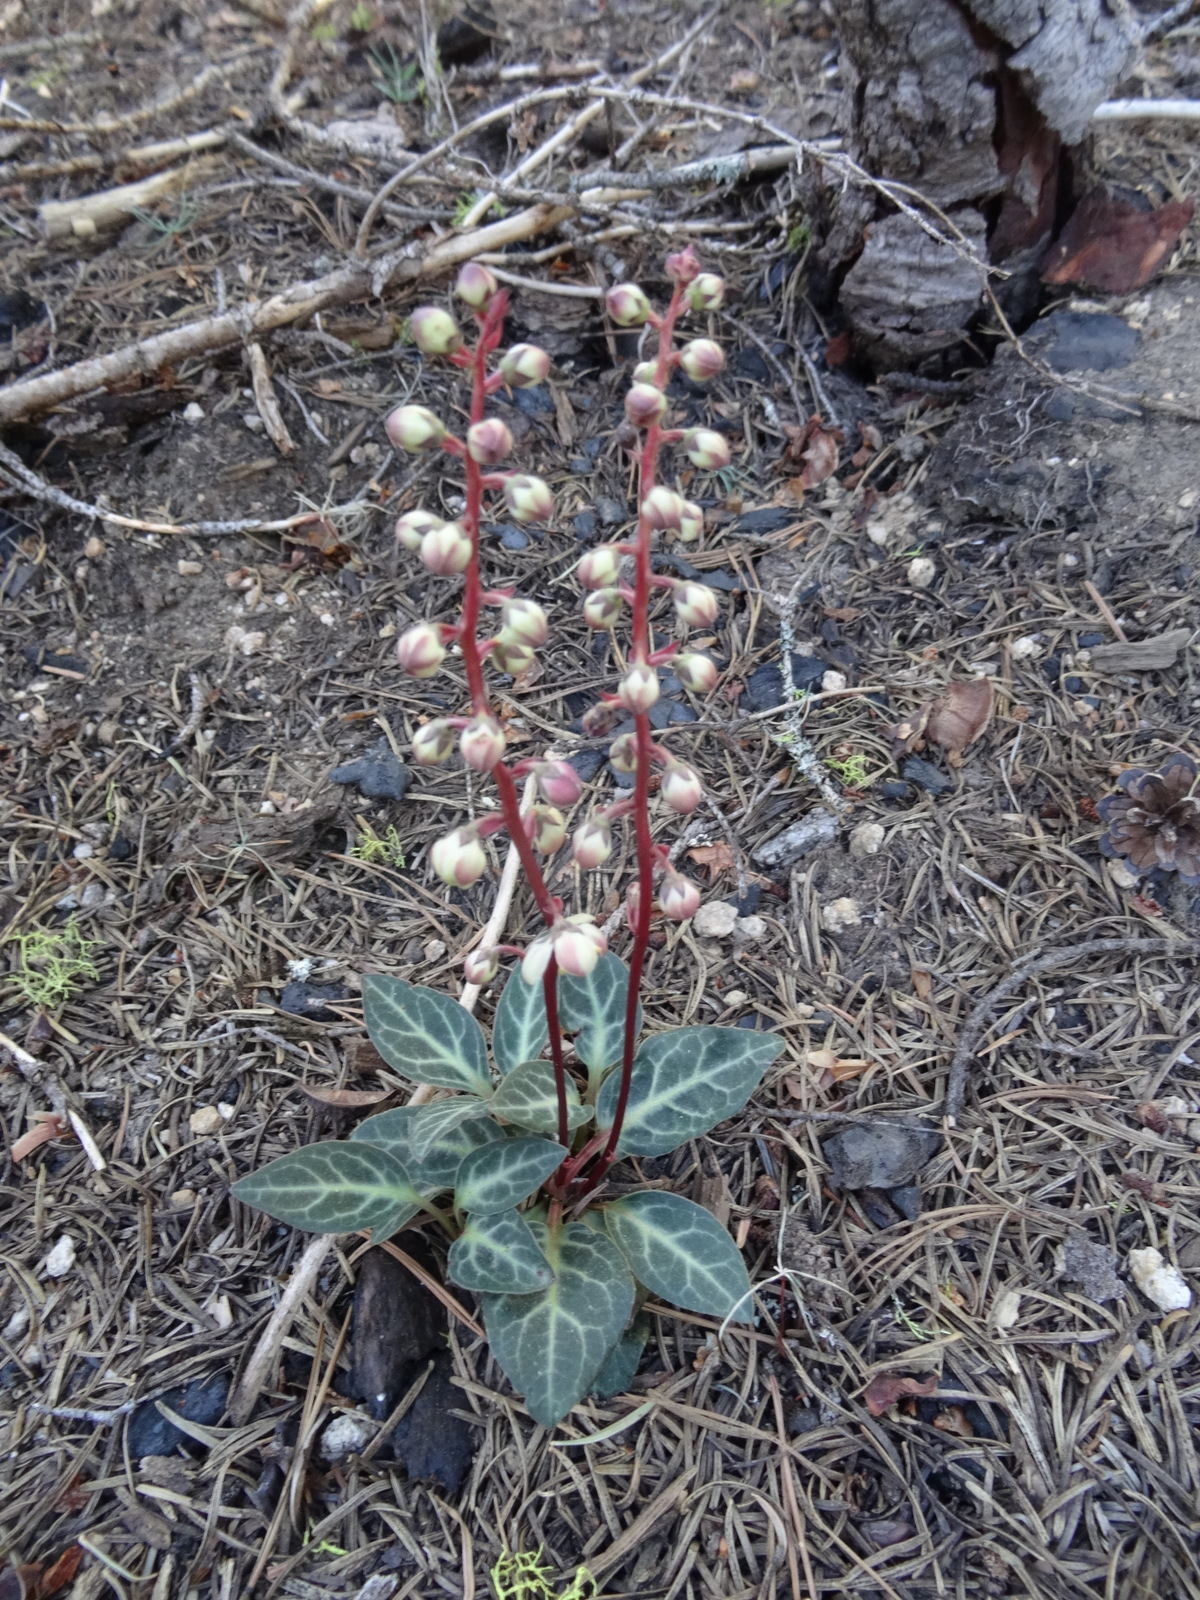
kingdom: Plantae
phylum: Tracheophyta
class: Magnoliopsida
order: Ericales
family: Ericaceae
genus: Pyrola
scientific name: Pyrola picta
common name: White-vein wintergreen
